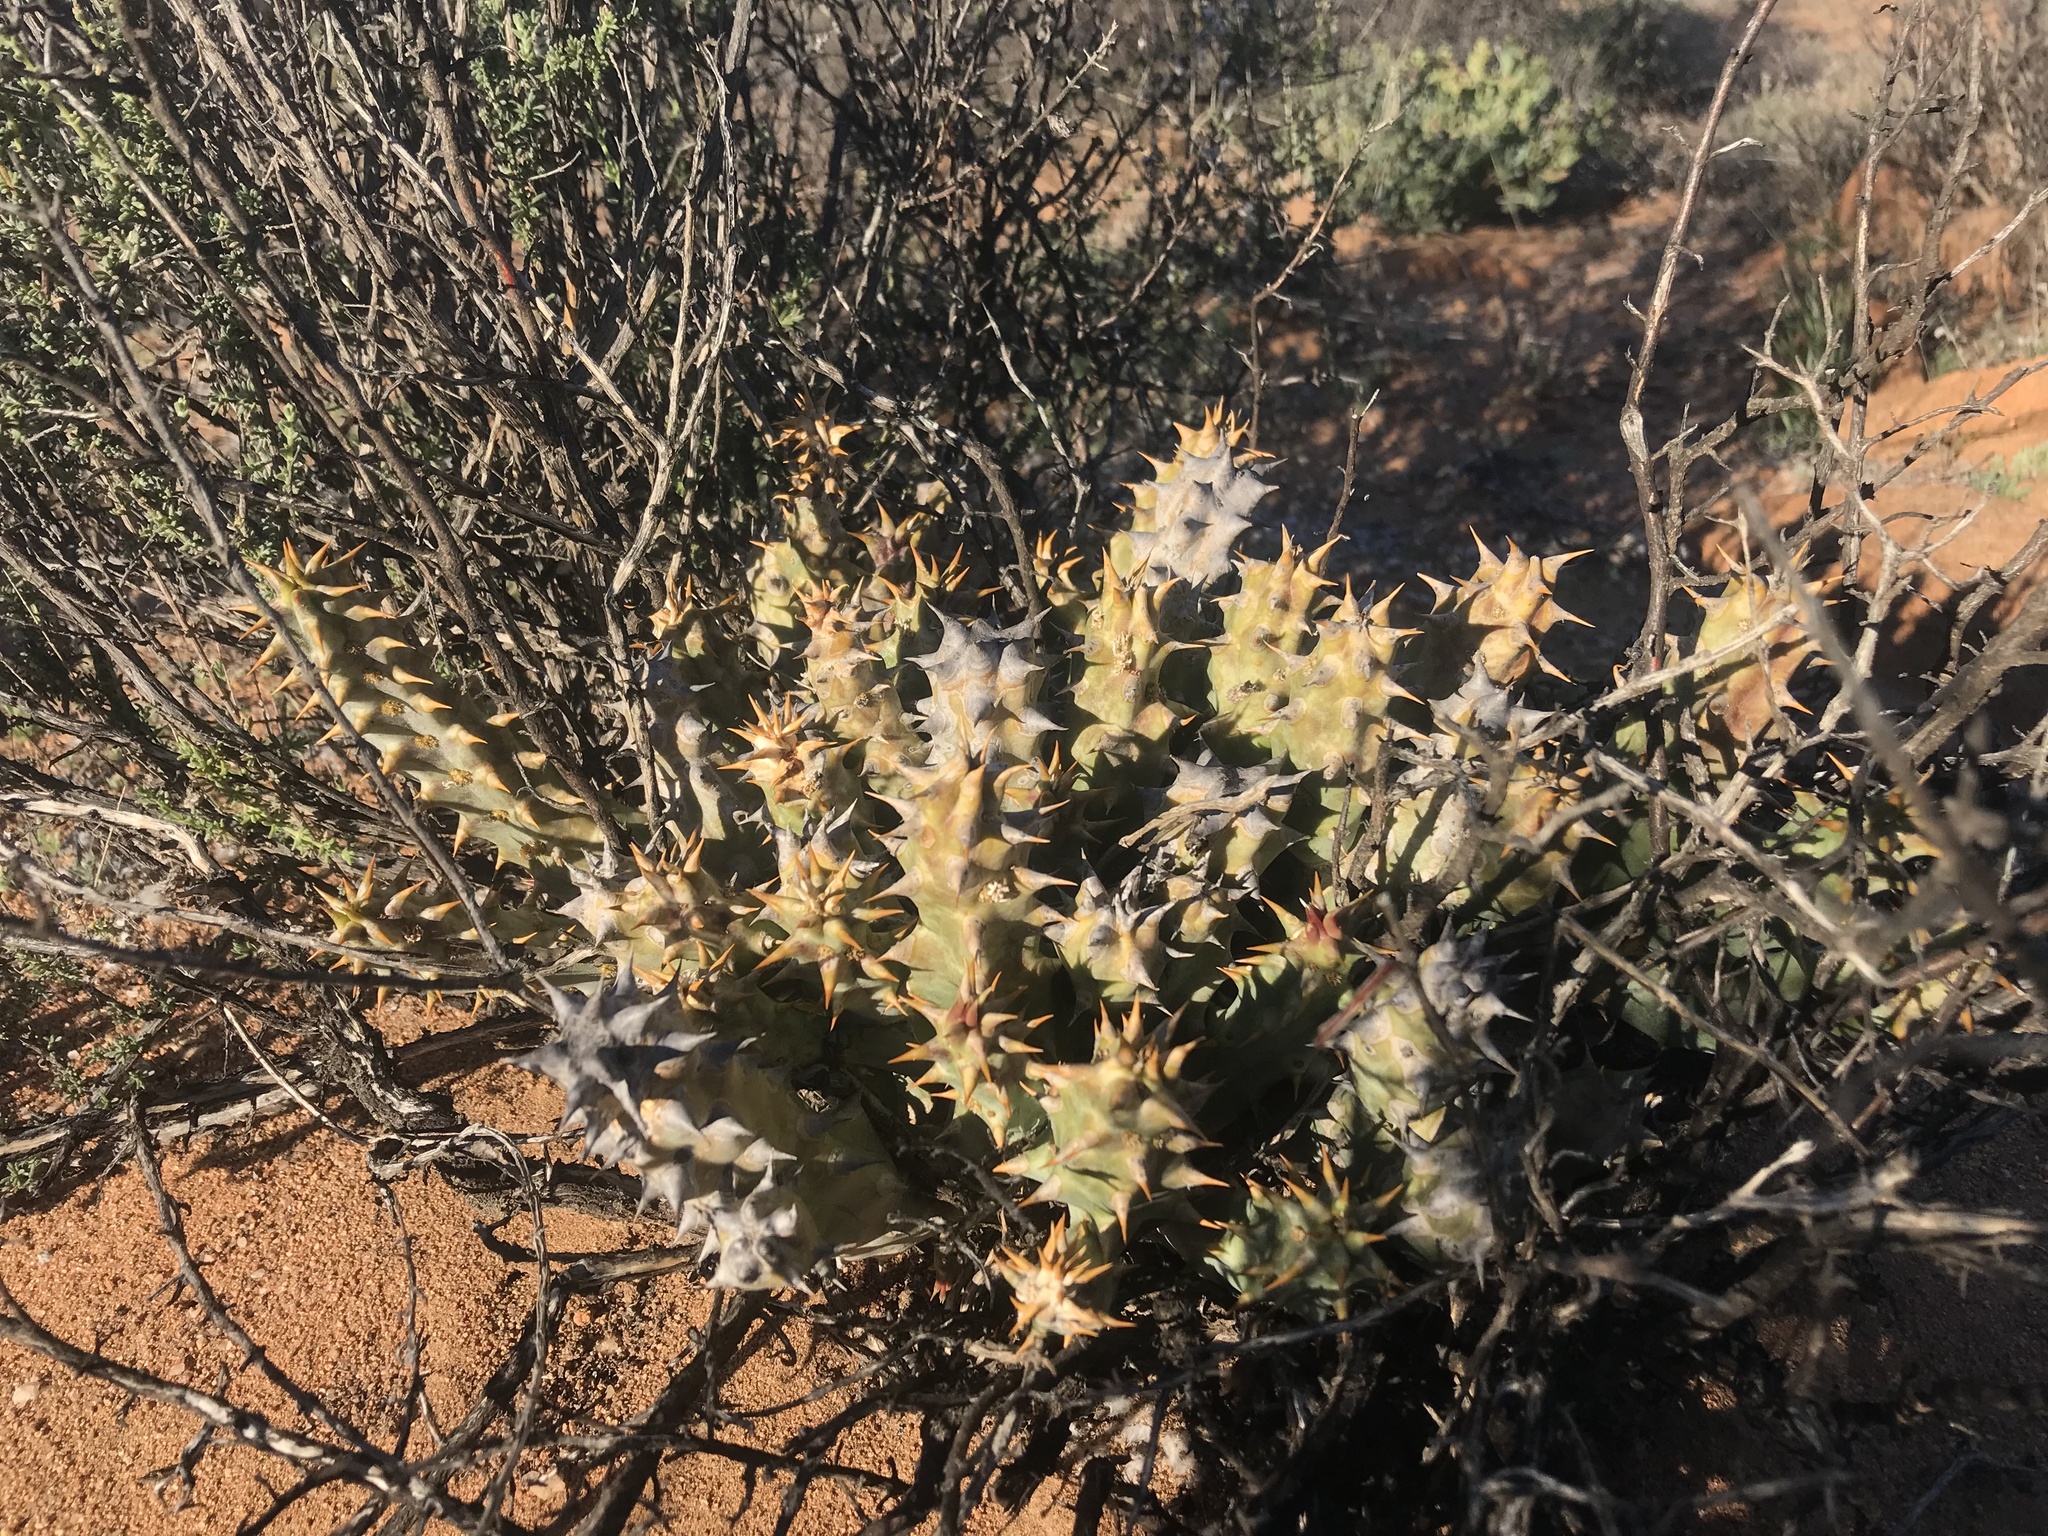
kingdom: Plantae
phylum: Tracheophyta
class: Magnoliopsida
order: Gentianales
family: Apocynaceae
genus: Ceropegia
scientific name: Ceropegia mammillaris
